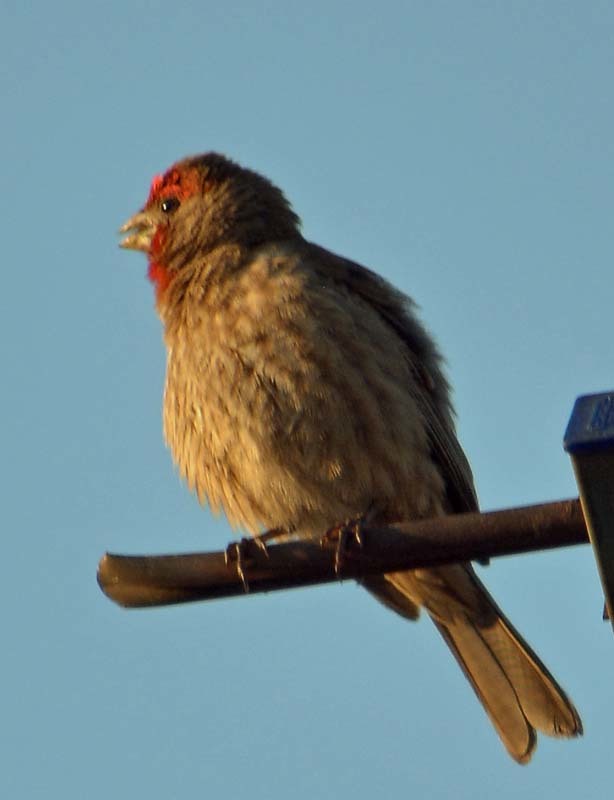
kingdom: Animalia
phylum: Chordata
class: Aves
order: Passeriformes
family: Fringillidae
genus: Haemorhous
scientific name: Haemorhous mexicanus
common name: House finch
